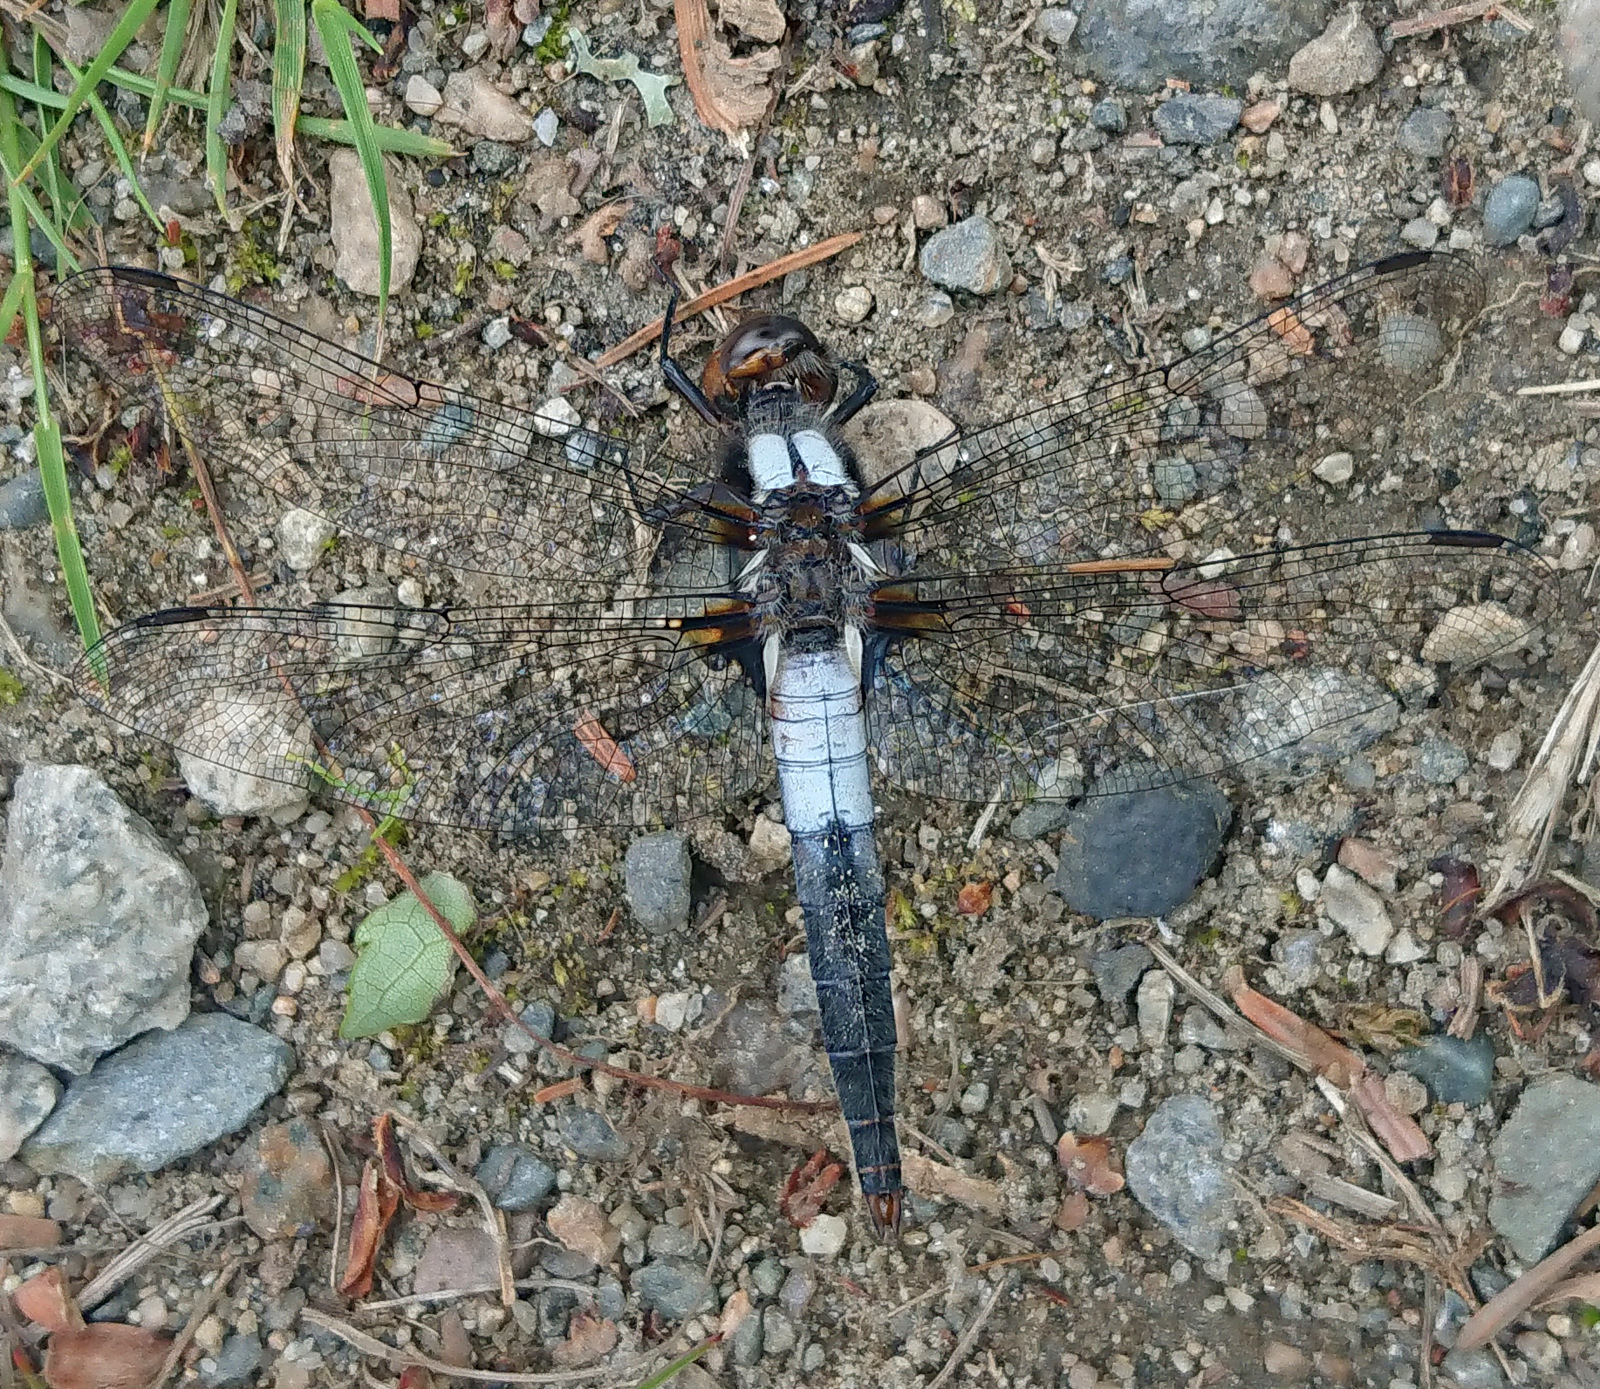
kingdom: Animalia
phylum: Arthropoda
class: Insecta
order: Odonata
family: Libellulidae
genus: Ladona
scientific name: Ladona julia
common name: Chalk-fronted corporal
